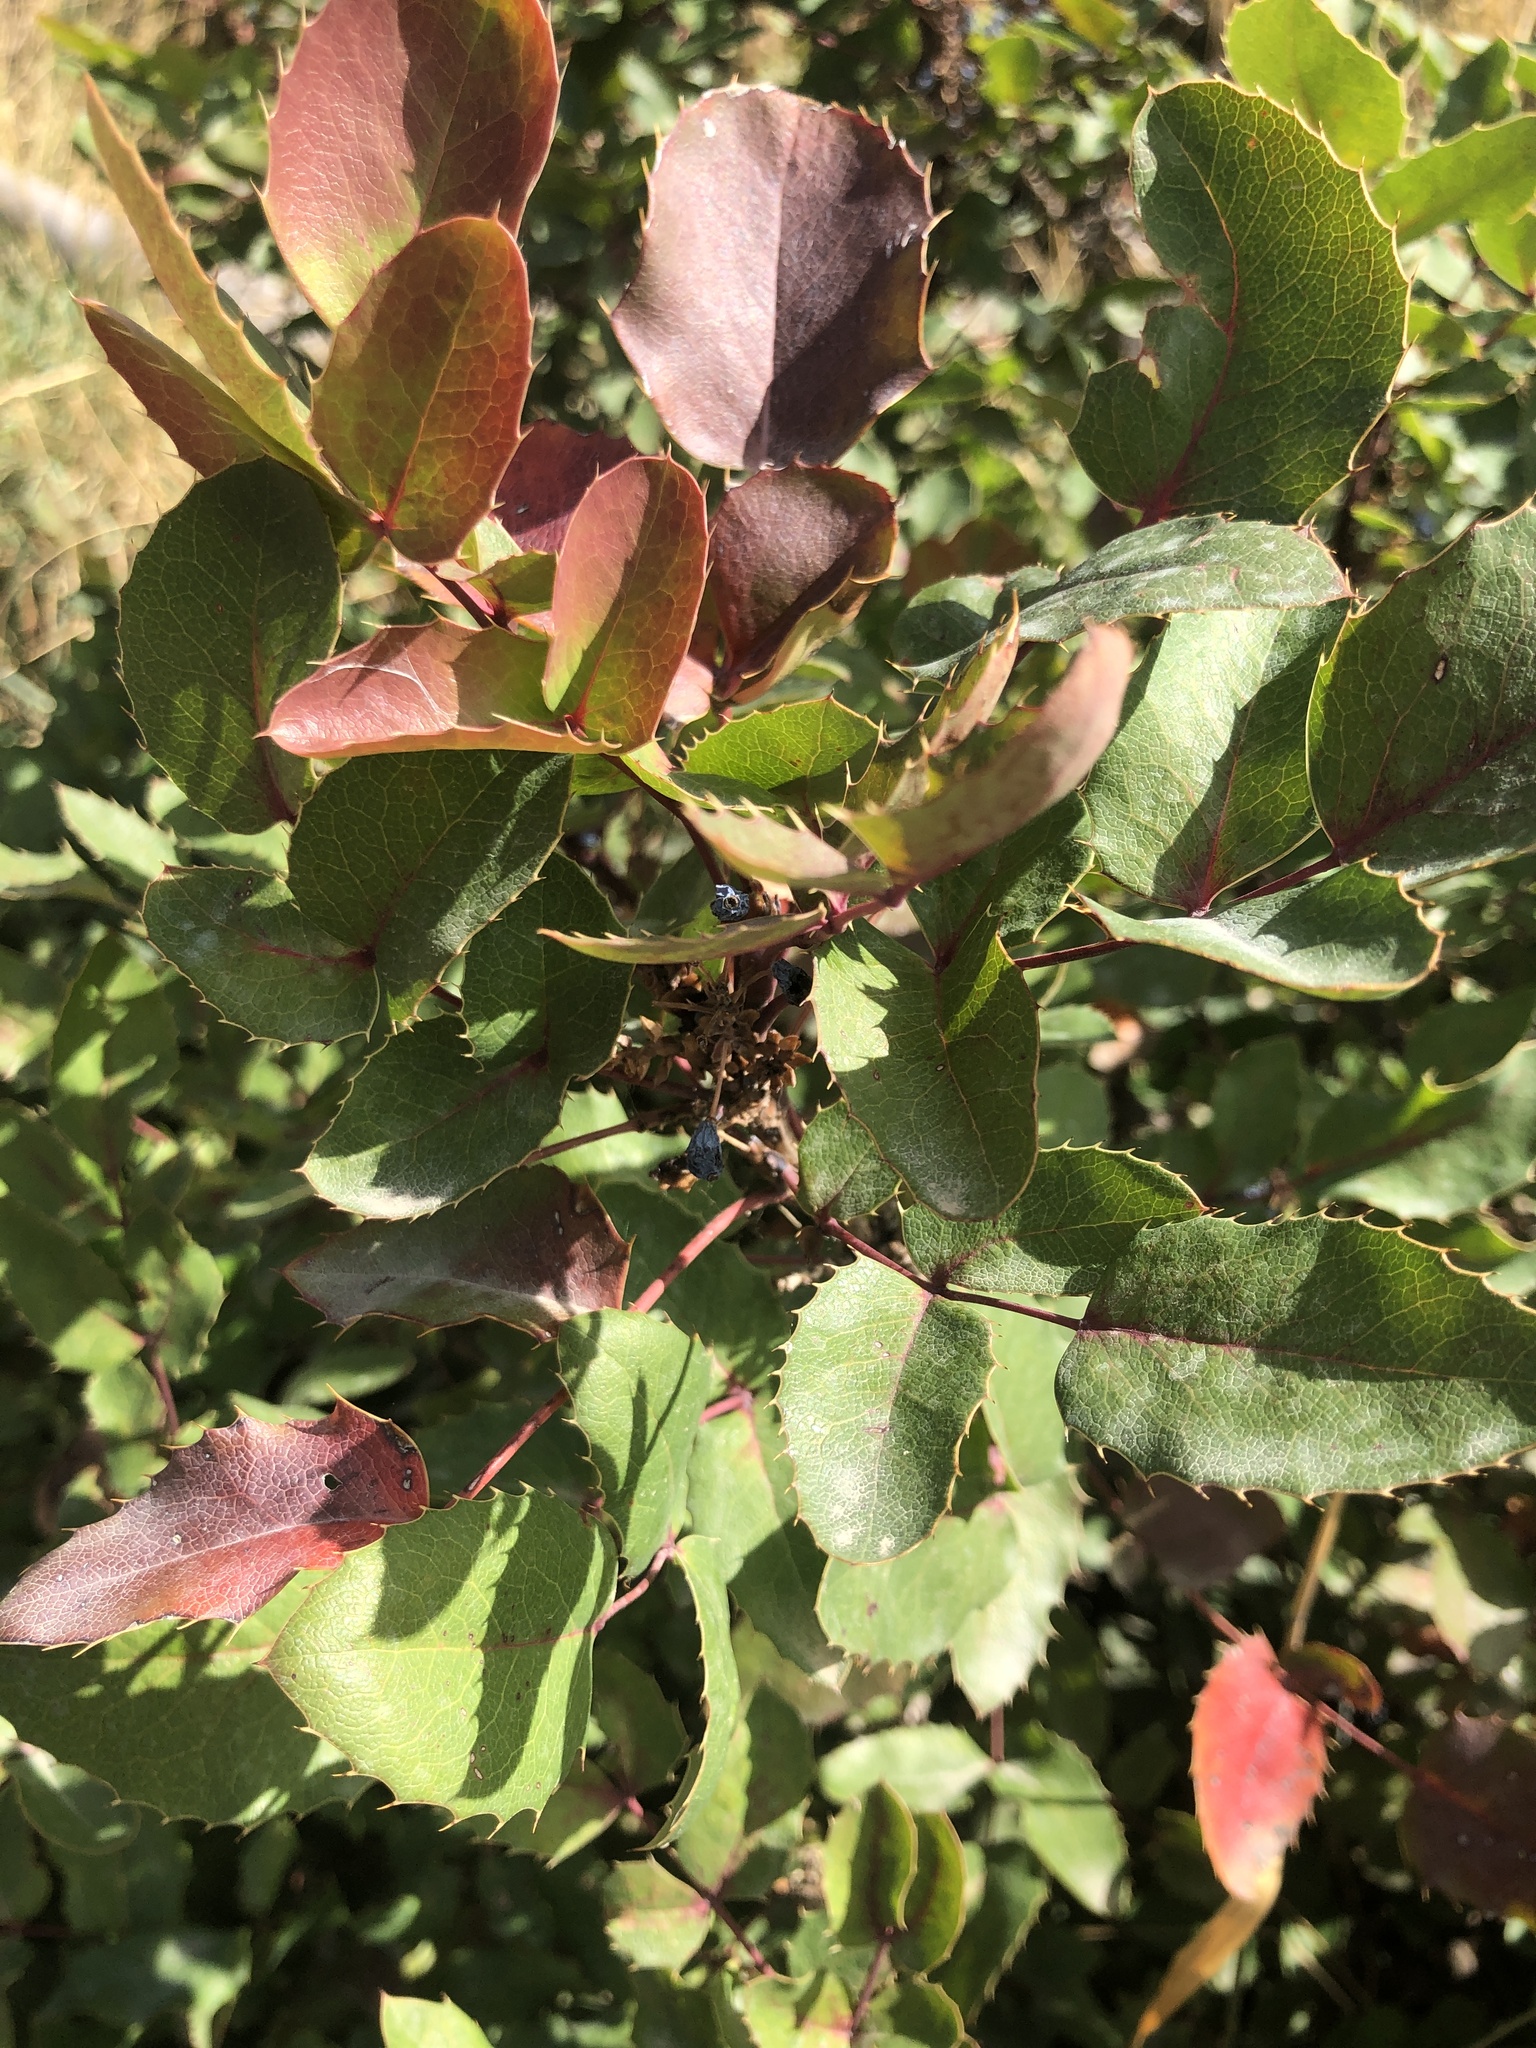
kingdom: Plantae
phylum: Tracheophyta
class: Magnoliopsida
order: Ranunculales
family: Berberidaceae
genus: Mahonia
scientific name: Mahonia repens
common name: Creeping oregon-grape
